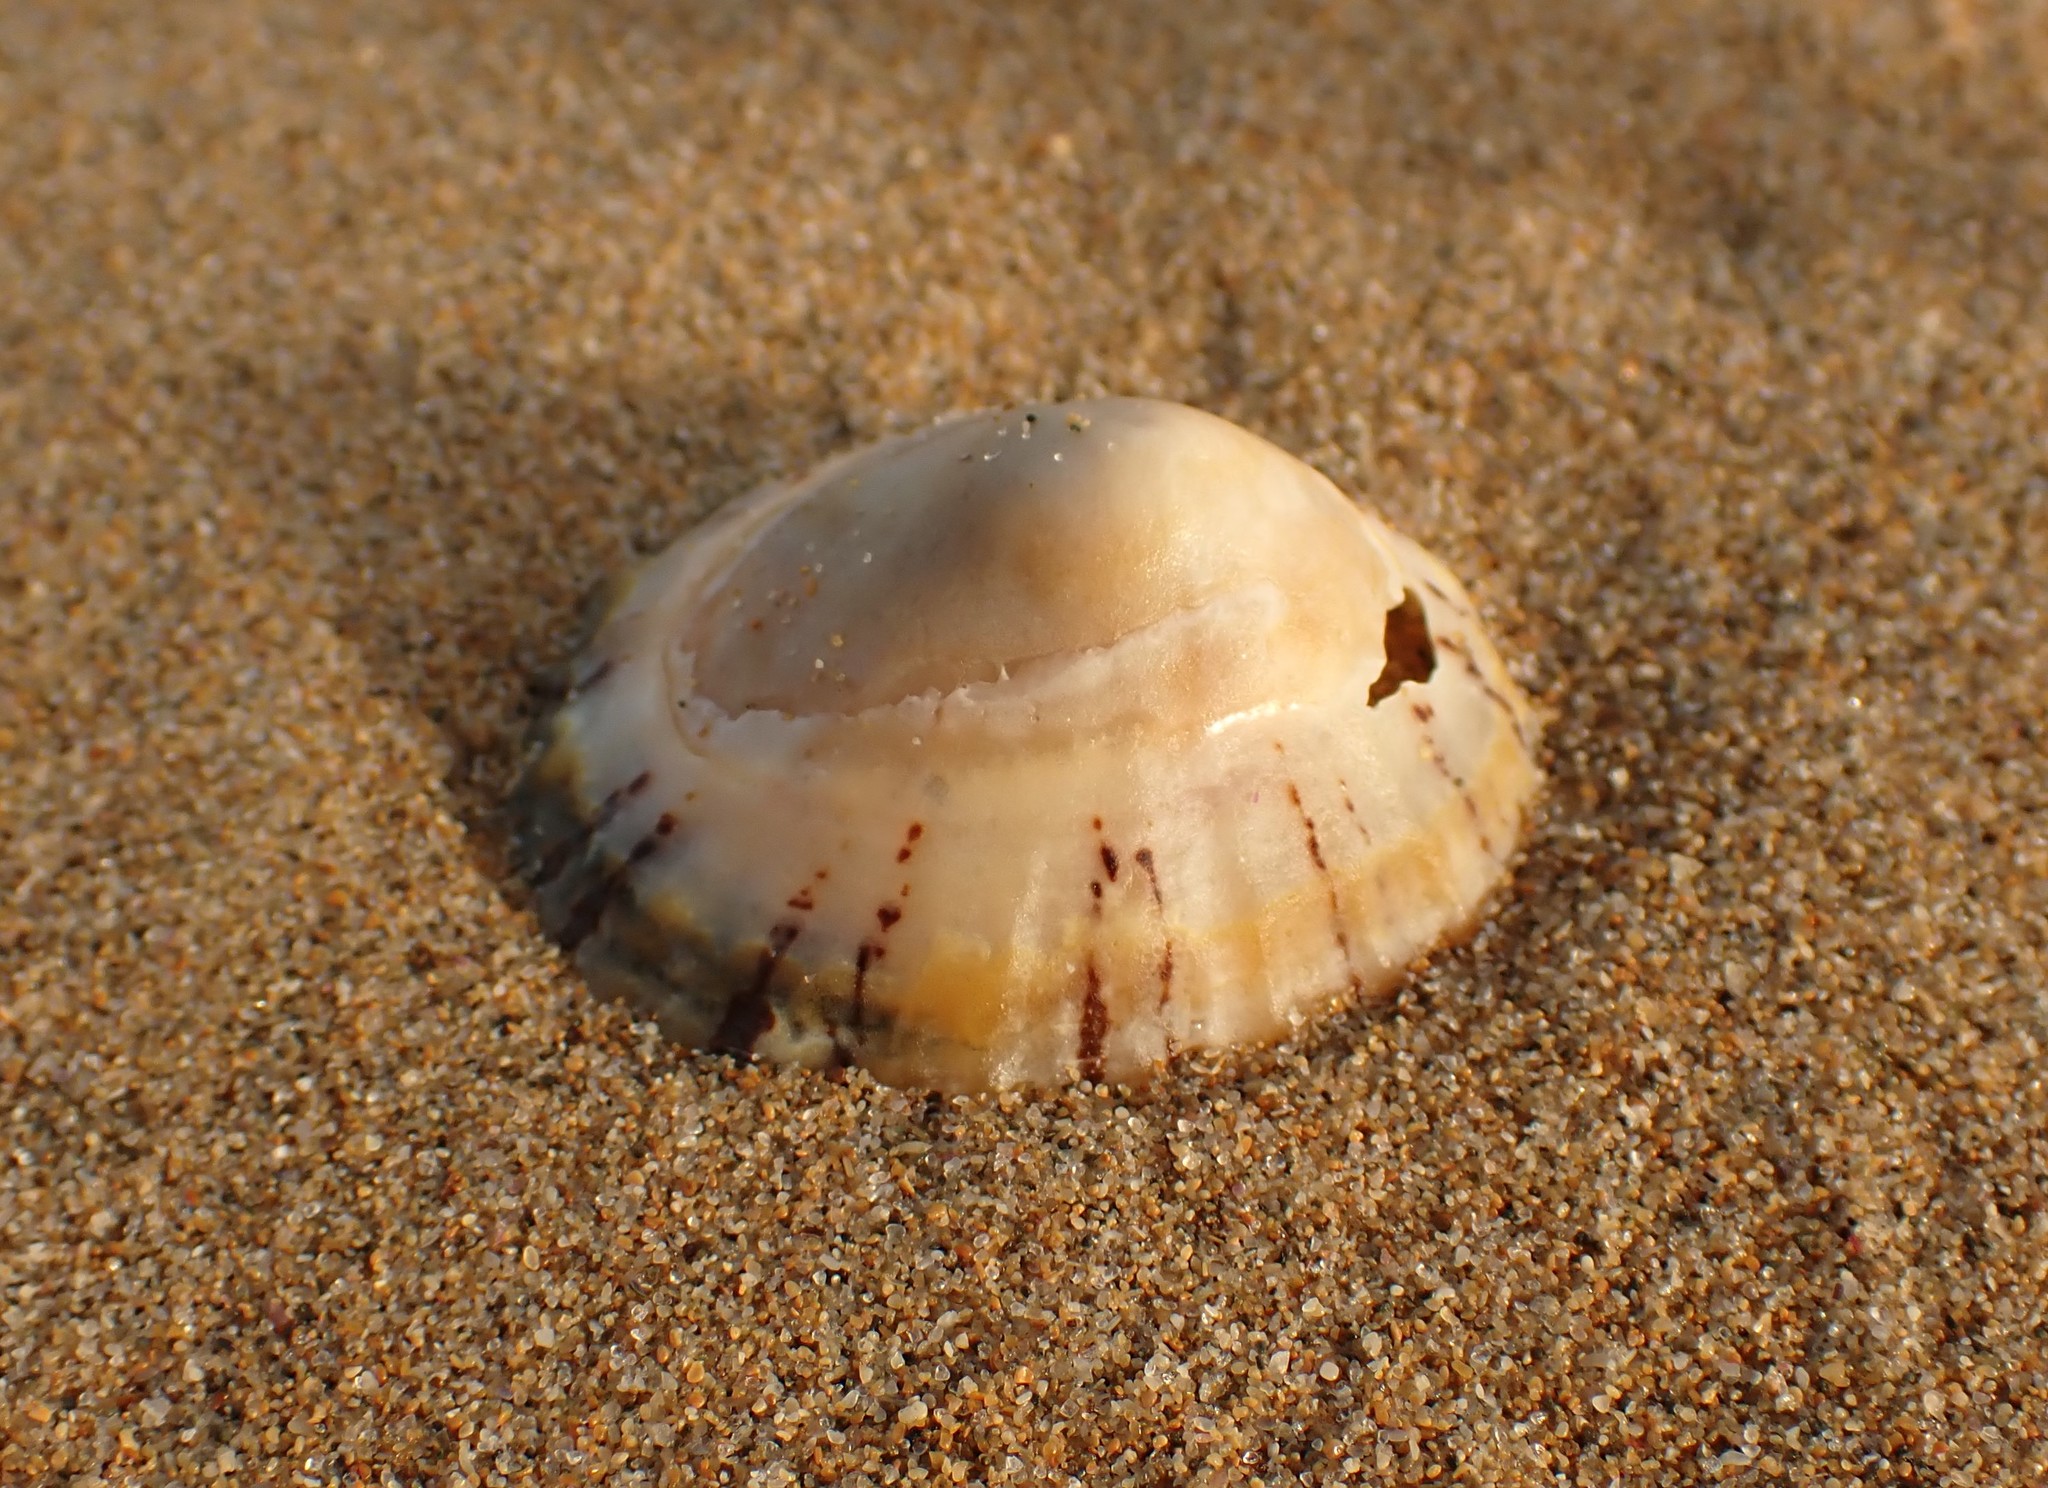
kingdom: Animalia
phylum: Mollusca
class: Gastropoda
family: Nacellidae
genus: Cellana
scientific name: Cellana tramoserica
